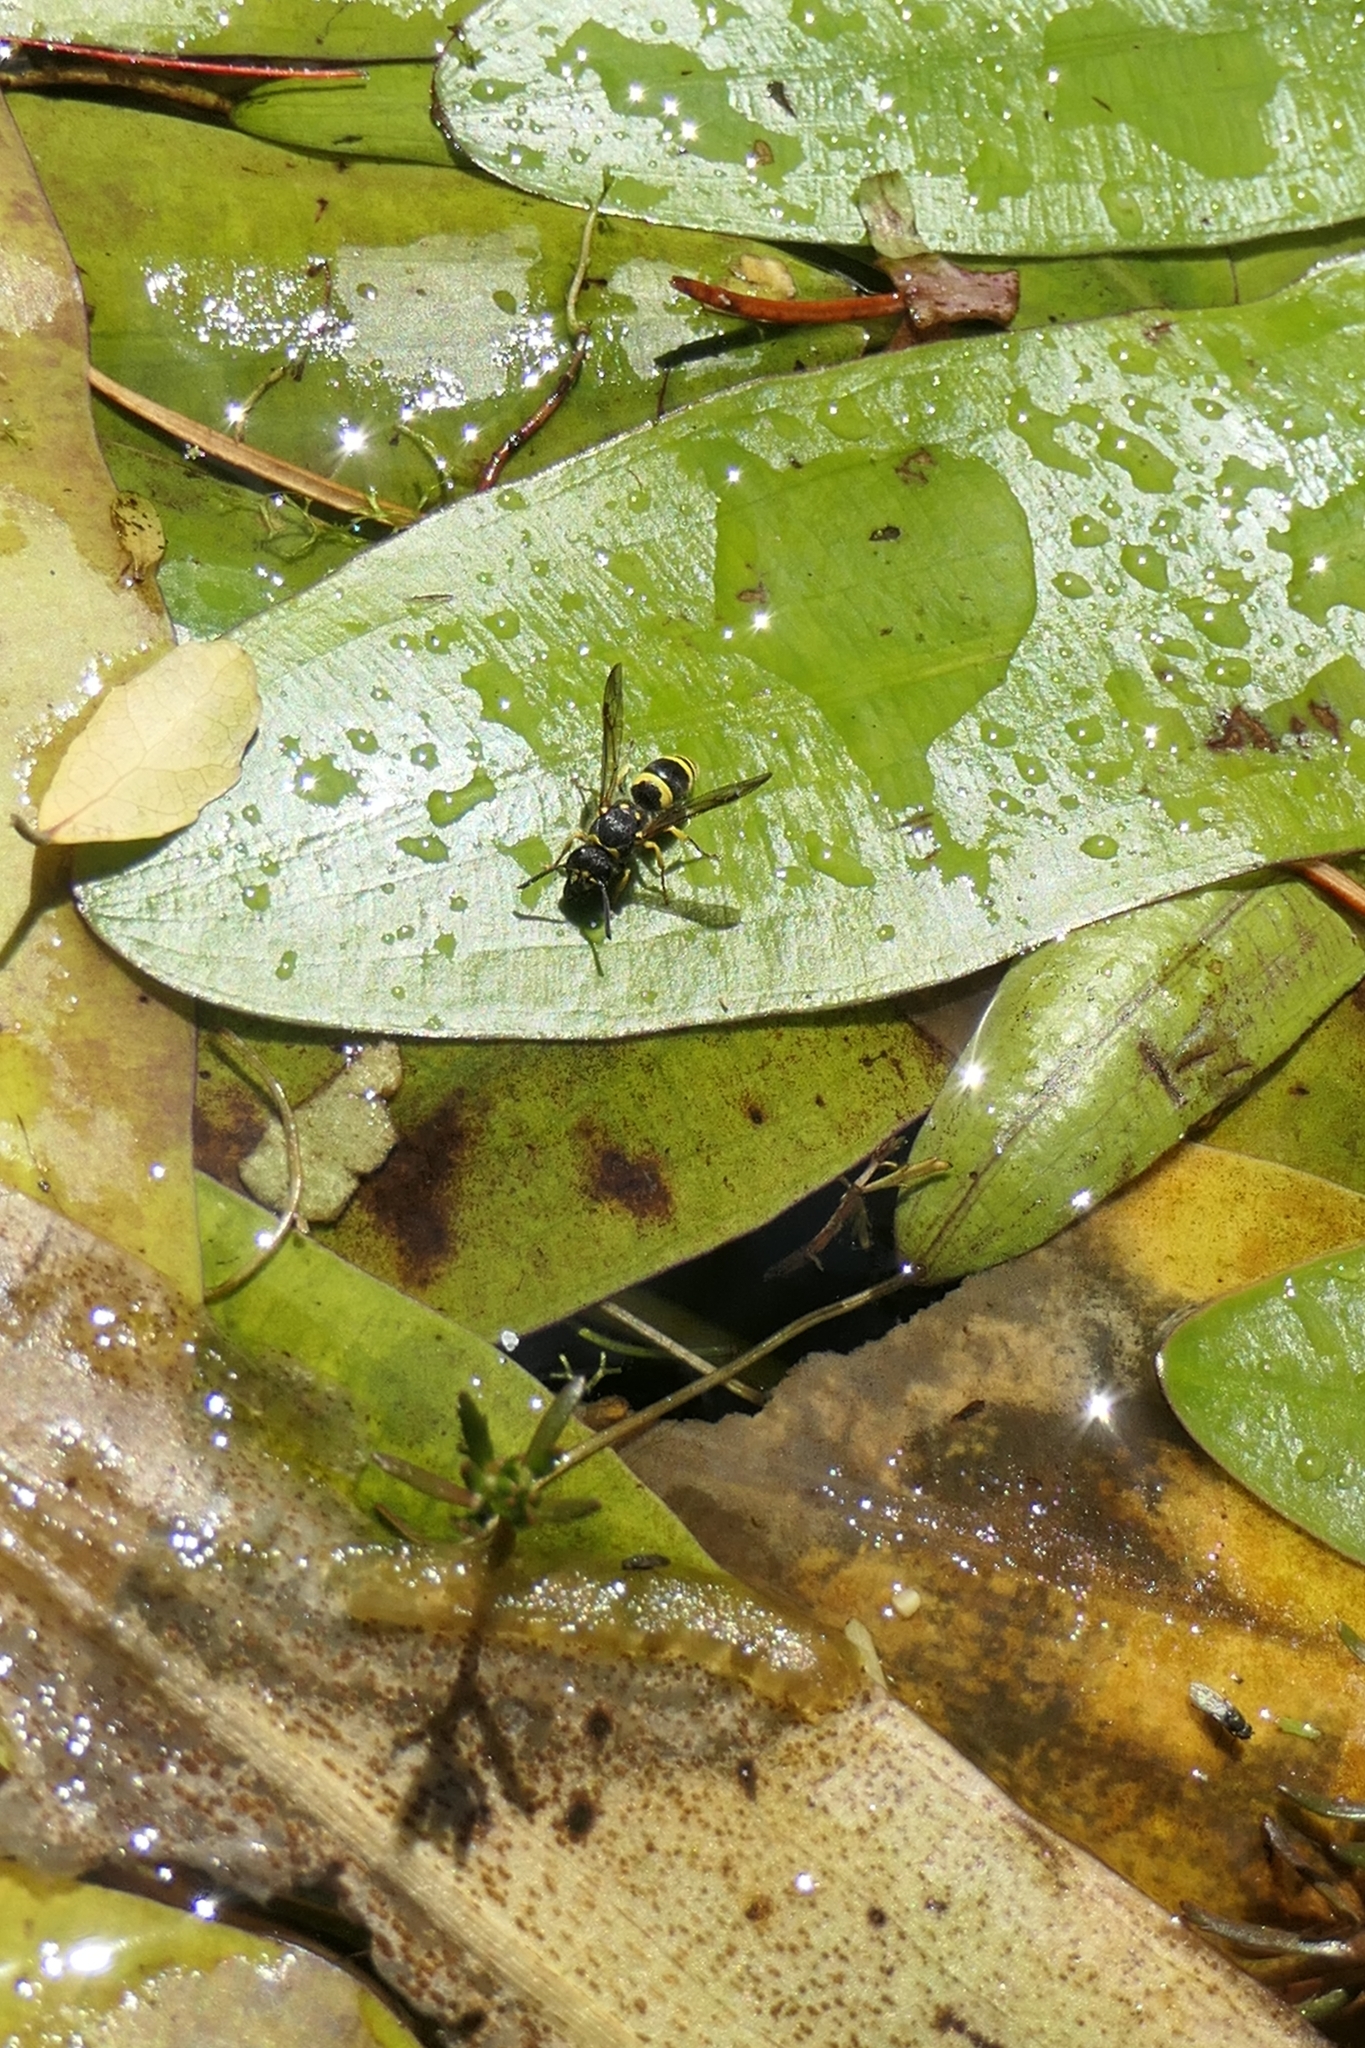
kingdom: Animalia
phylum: Arthropoda
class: Insecta
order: Hymenoptera
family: Vespidae
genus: Ancistrocerus
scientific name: Ancistrocerus gazella
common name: European tube wasp
